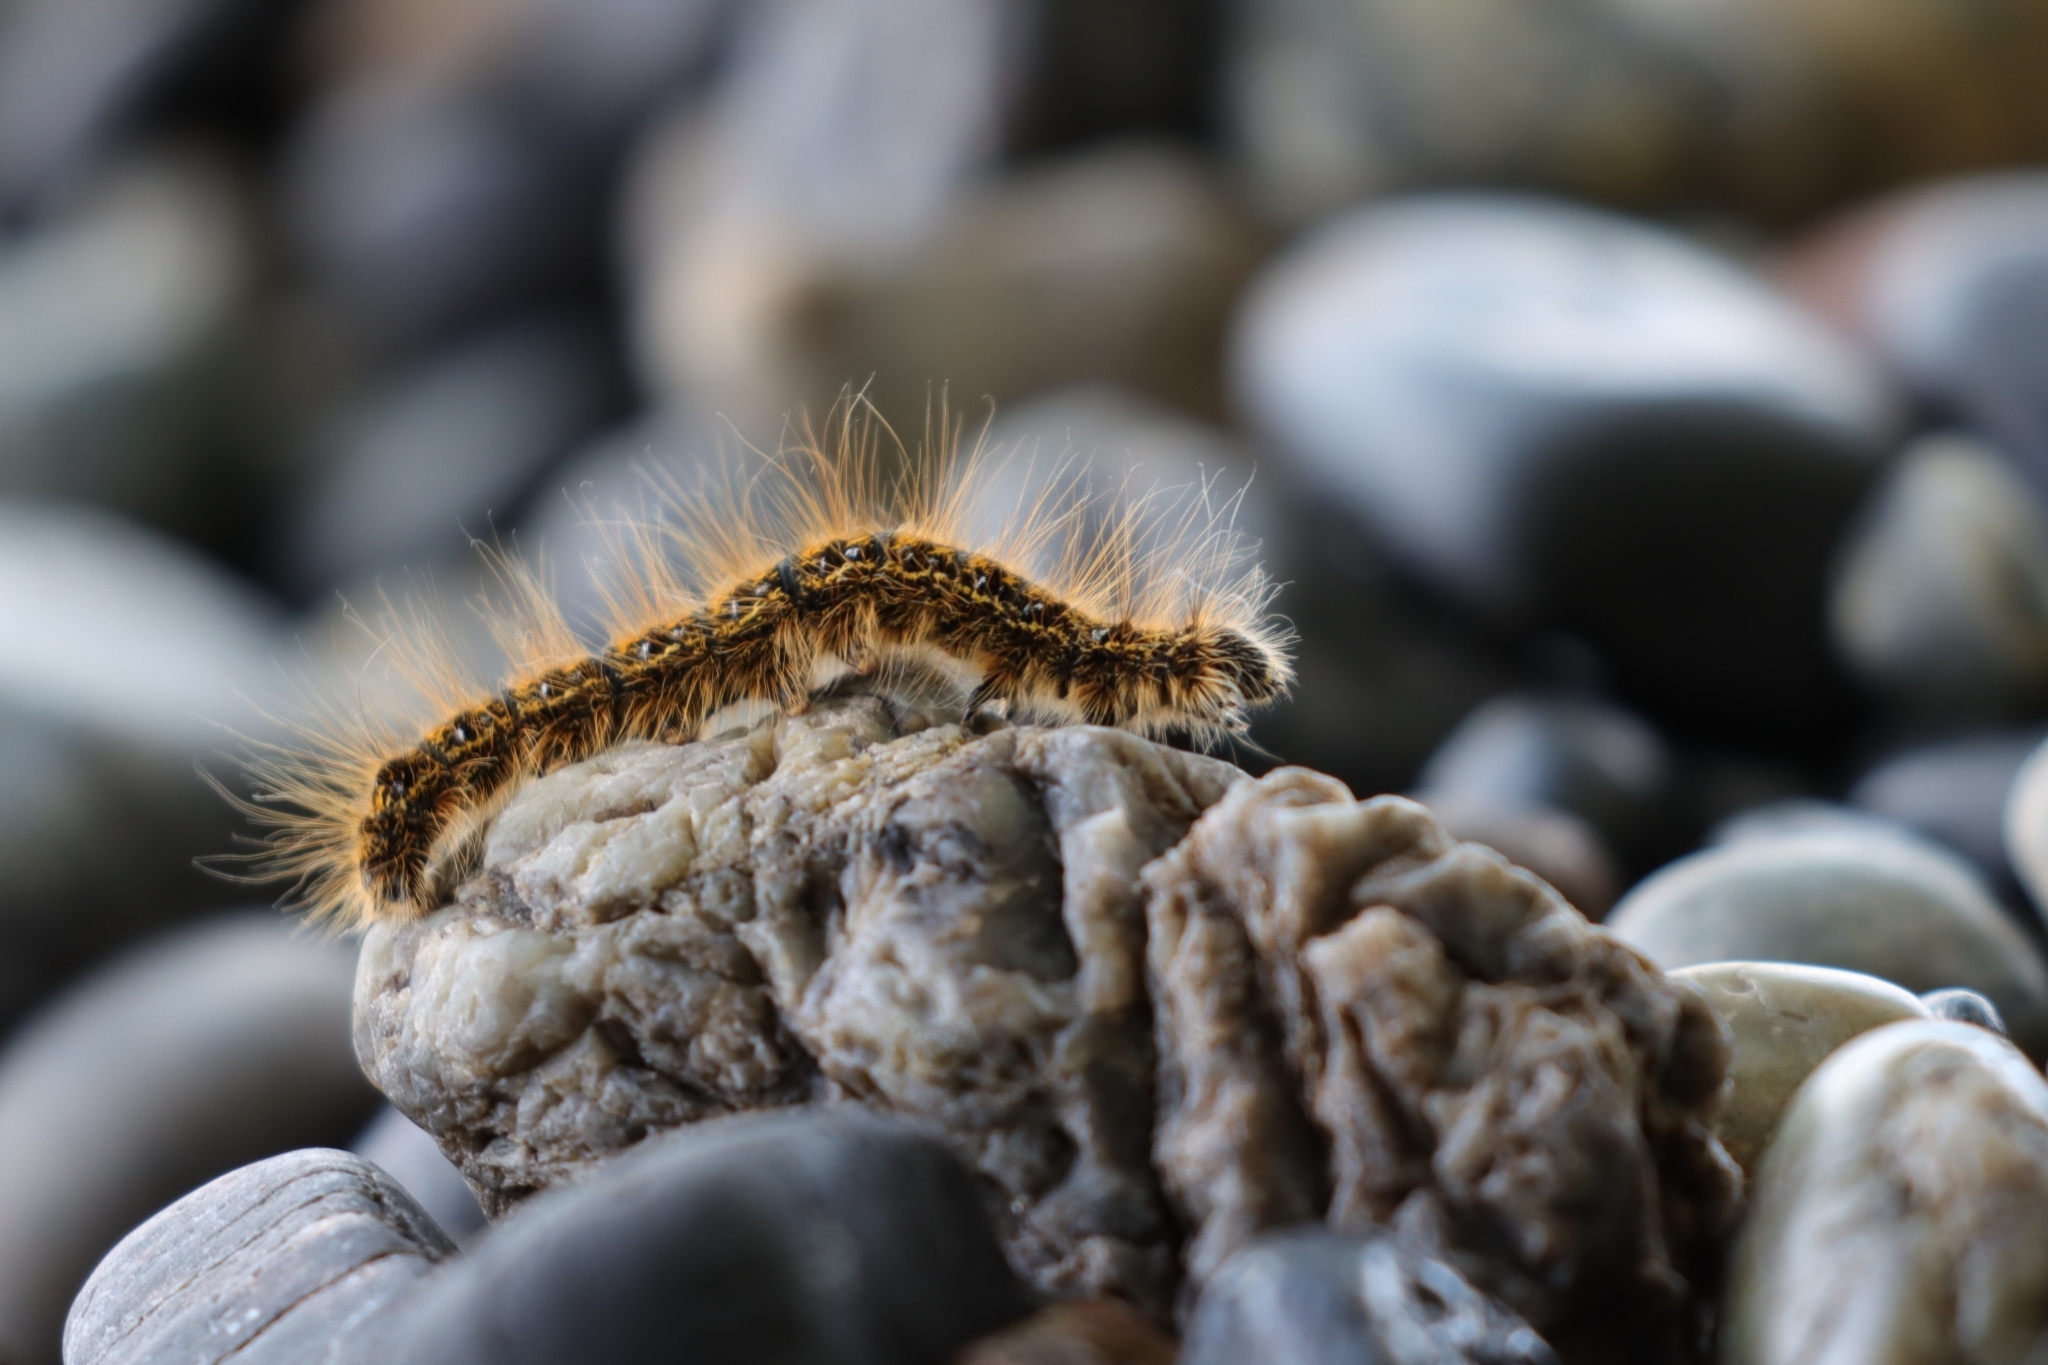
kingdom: Animalia
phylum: Arthropoda
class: Insecta
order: Lepidoptera
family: Lasiocampidae
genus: Malacosoma
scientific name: Malacosoma californica
